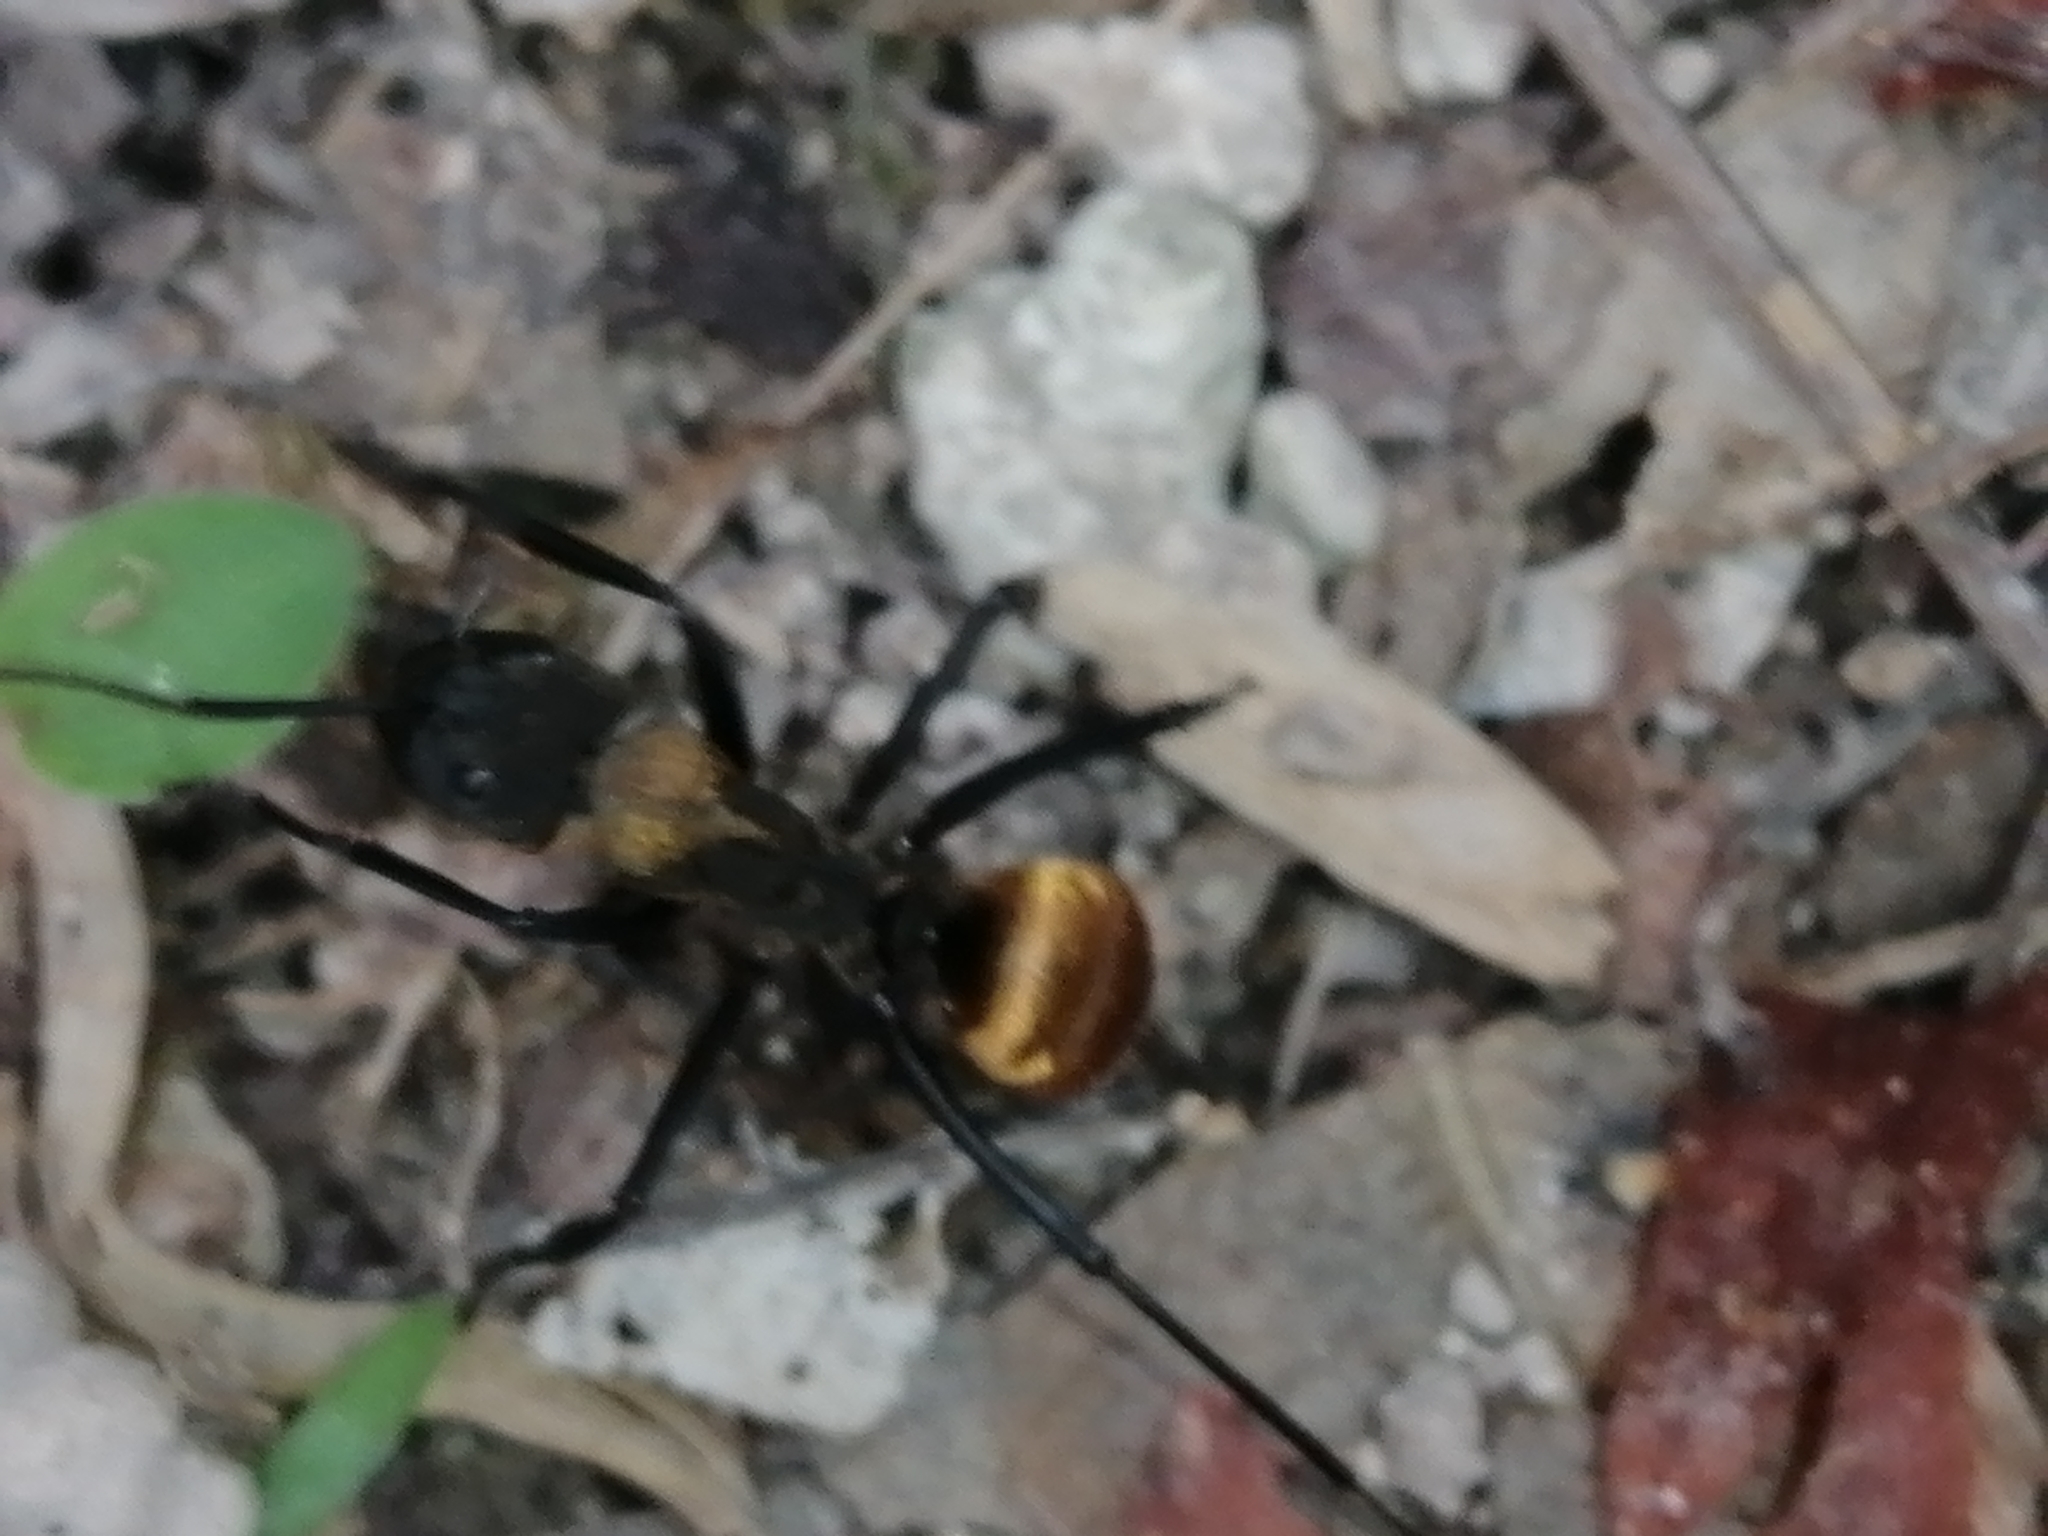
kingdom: Animalia
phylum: Arthropoda
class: Insecta
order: Hymenoptera
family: Formicidae
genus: Camponotus
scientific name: Camponotus sericeiventris
